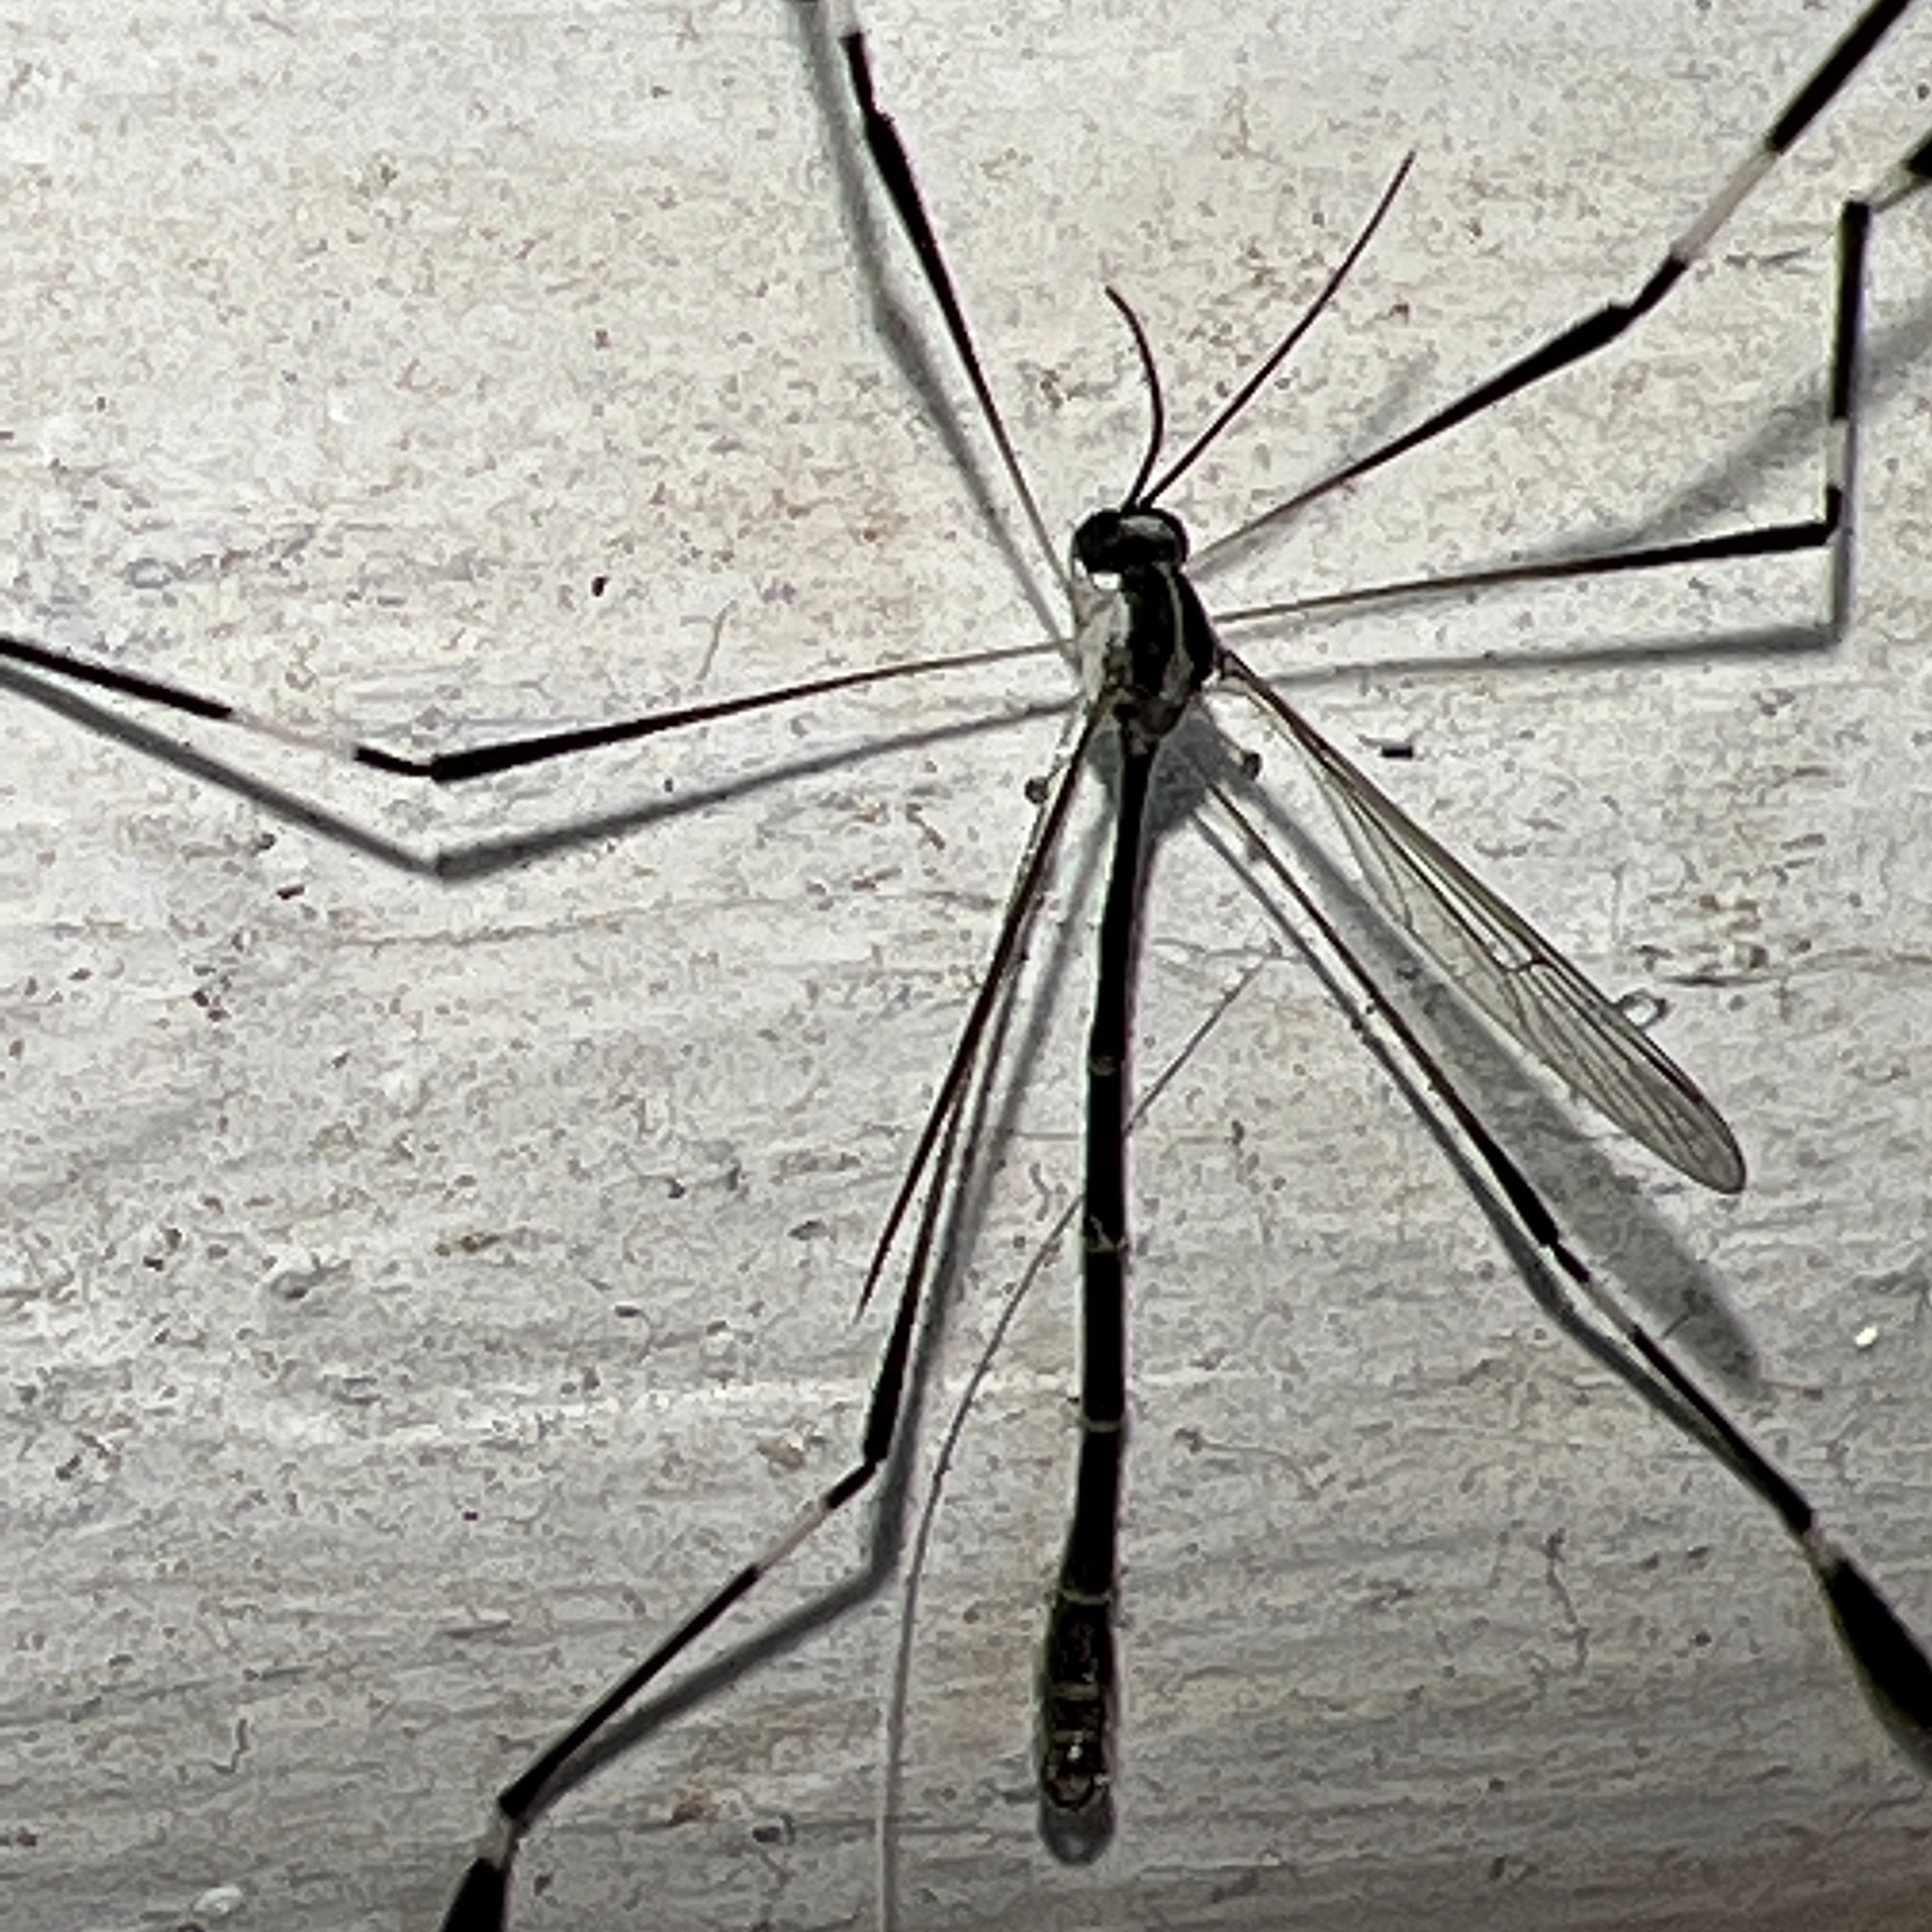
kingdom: Animalia
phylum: Arthropoda
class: Insecta
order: Diptera
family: Ptychopteridae
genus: Bittacomorpha
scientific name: Bittacomorpha clavipes
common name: Eastern phantom crane fly
